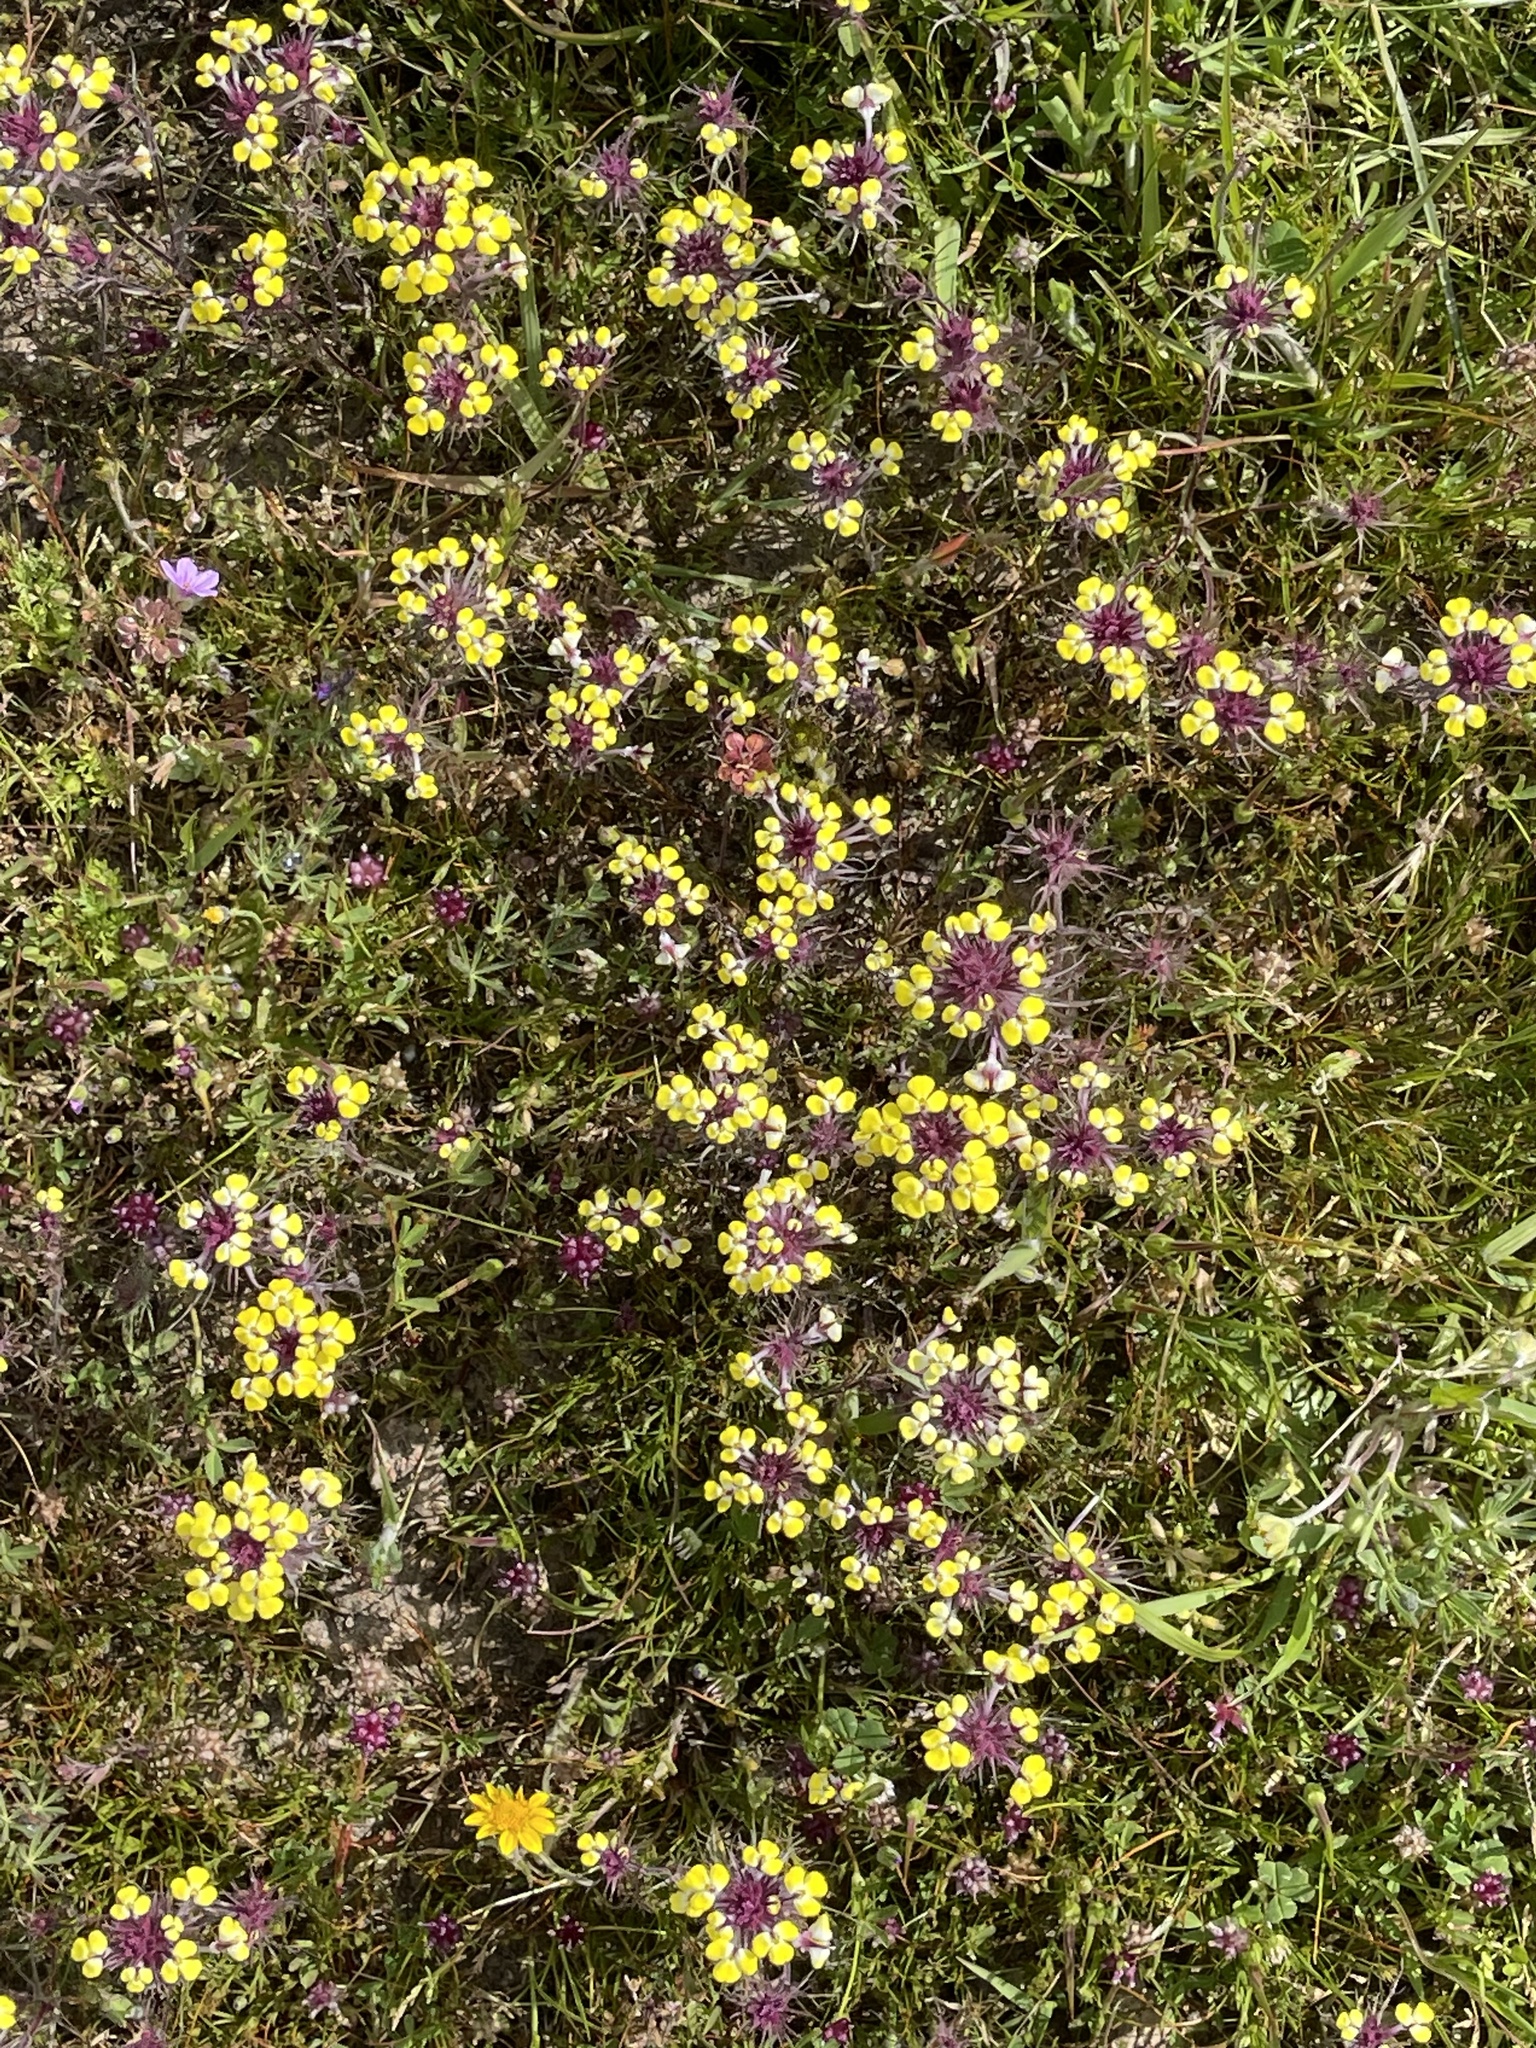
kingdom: Plantae
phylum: Tracheophyta
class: Magnoliopsida
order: Lamiales
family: Orobanchaceae
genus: Triphysaria
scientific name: Triphysaria eriantha
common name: Johnny-tuck
